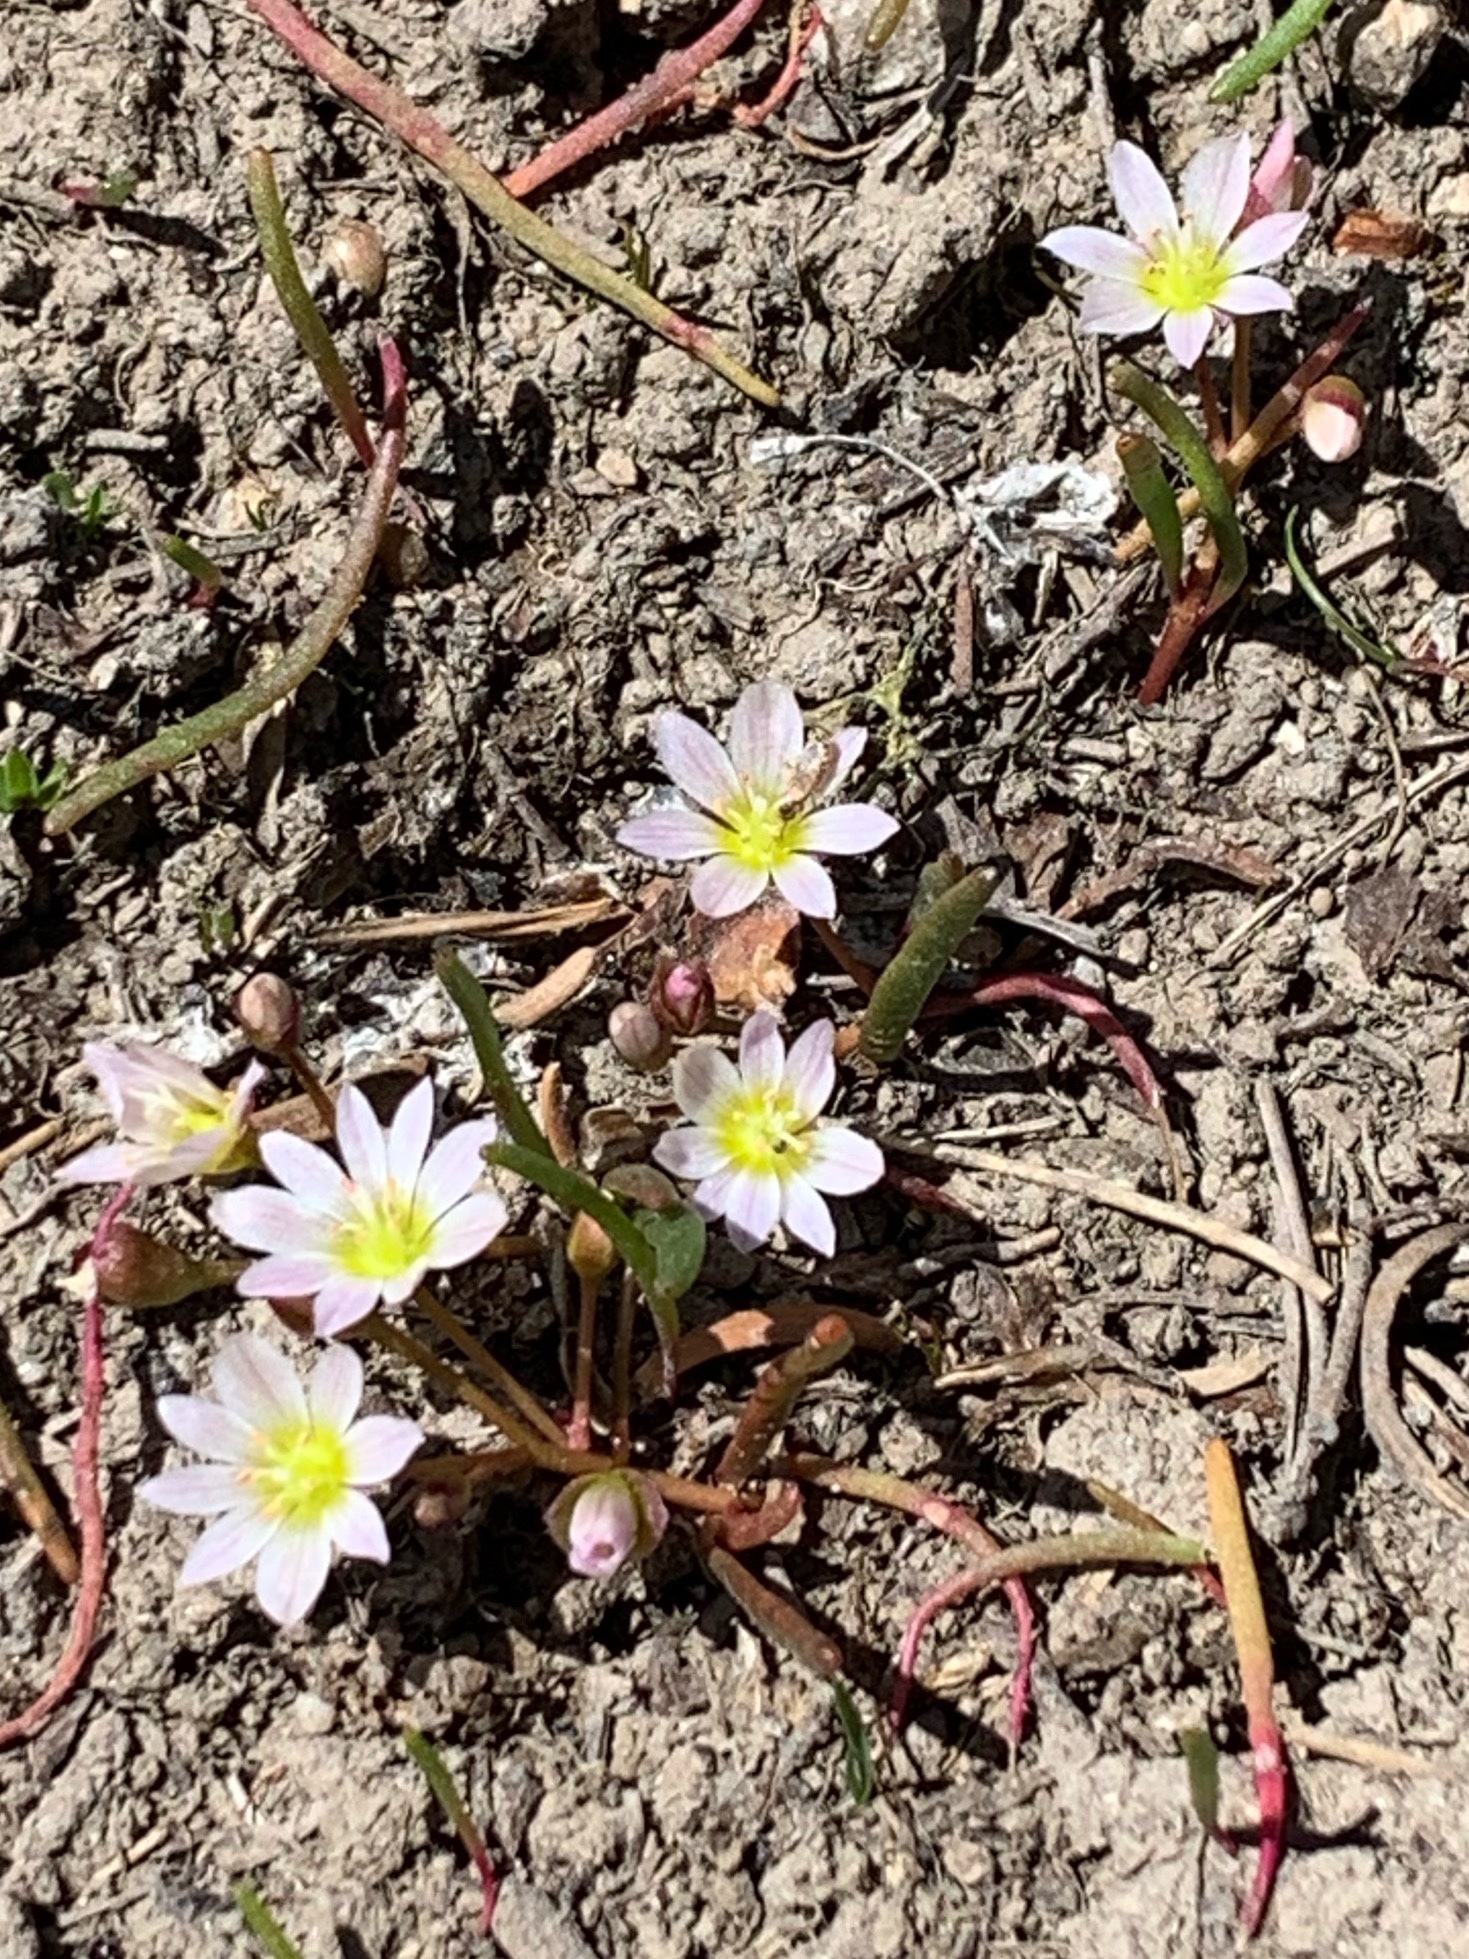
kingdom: Plantae
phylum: Tracheophyta
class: Magnoliopsida
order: Caryophyllales
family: Montiaceae
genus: Lewisia
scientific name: Lewisia triphylla
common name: Three-leaved bitterroot
